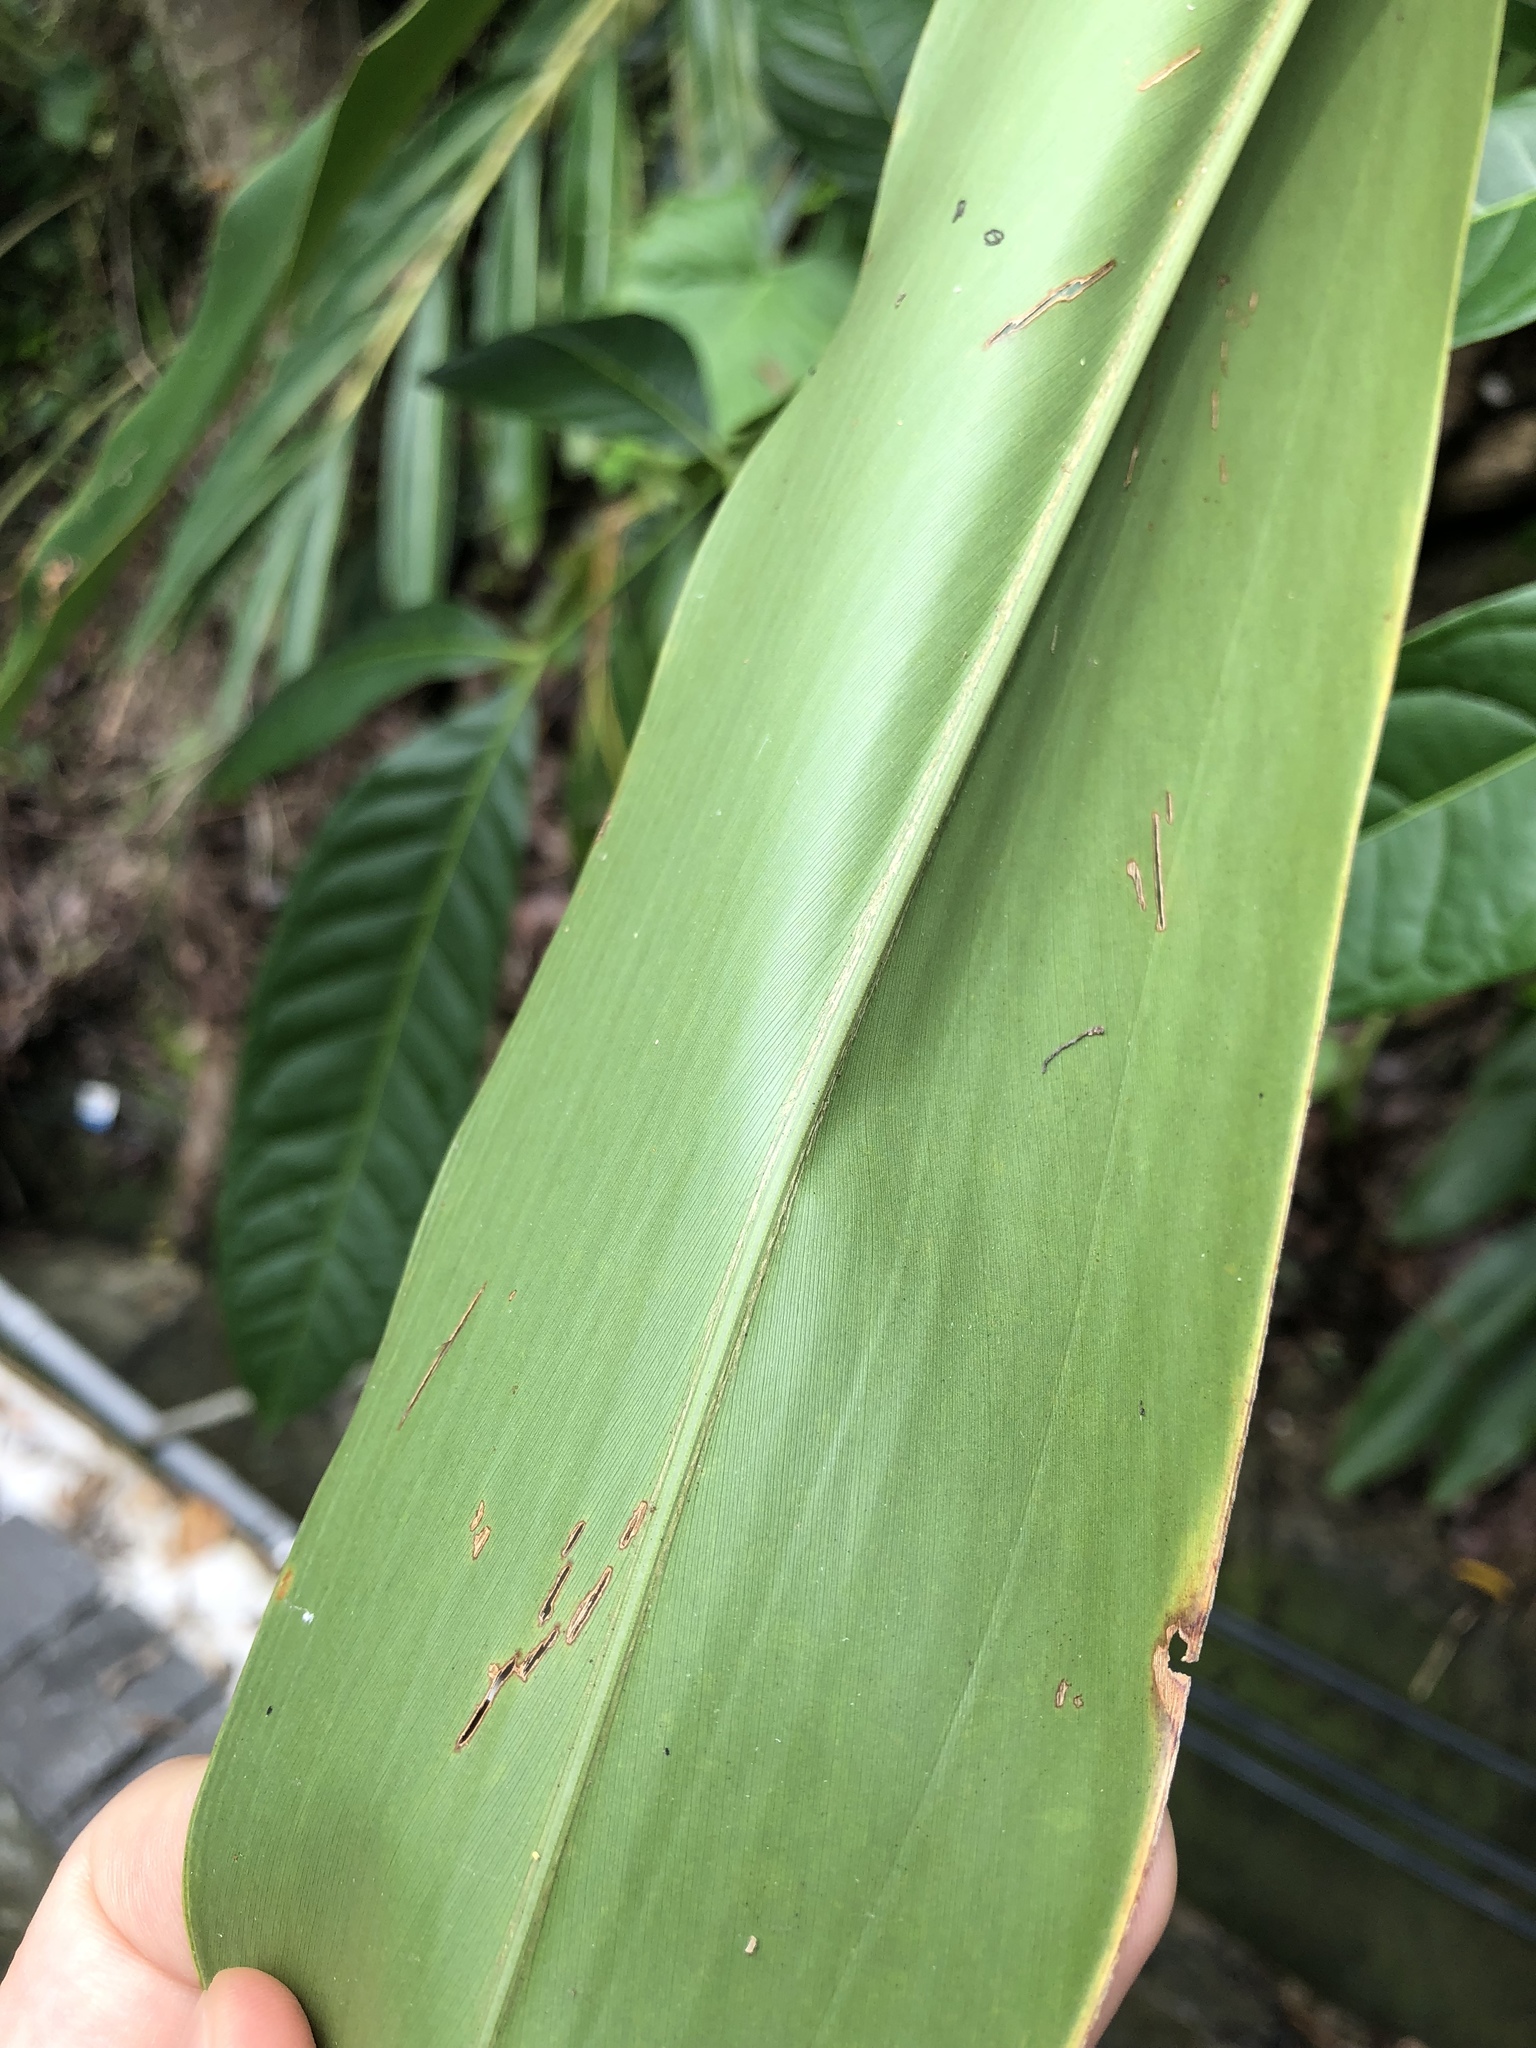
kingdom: Plantae
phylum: Tracheophyta
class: Liliopsida
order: Zingiberales
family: Zingiberaceae
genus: Alpinia
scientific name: Alpinia zerumbet
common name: Shellplant
